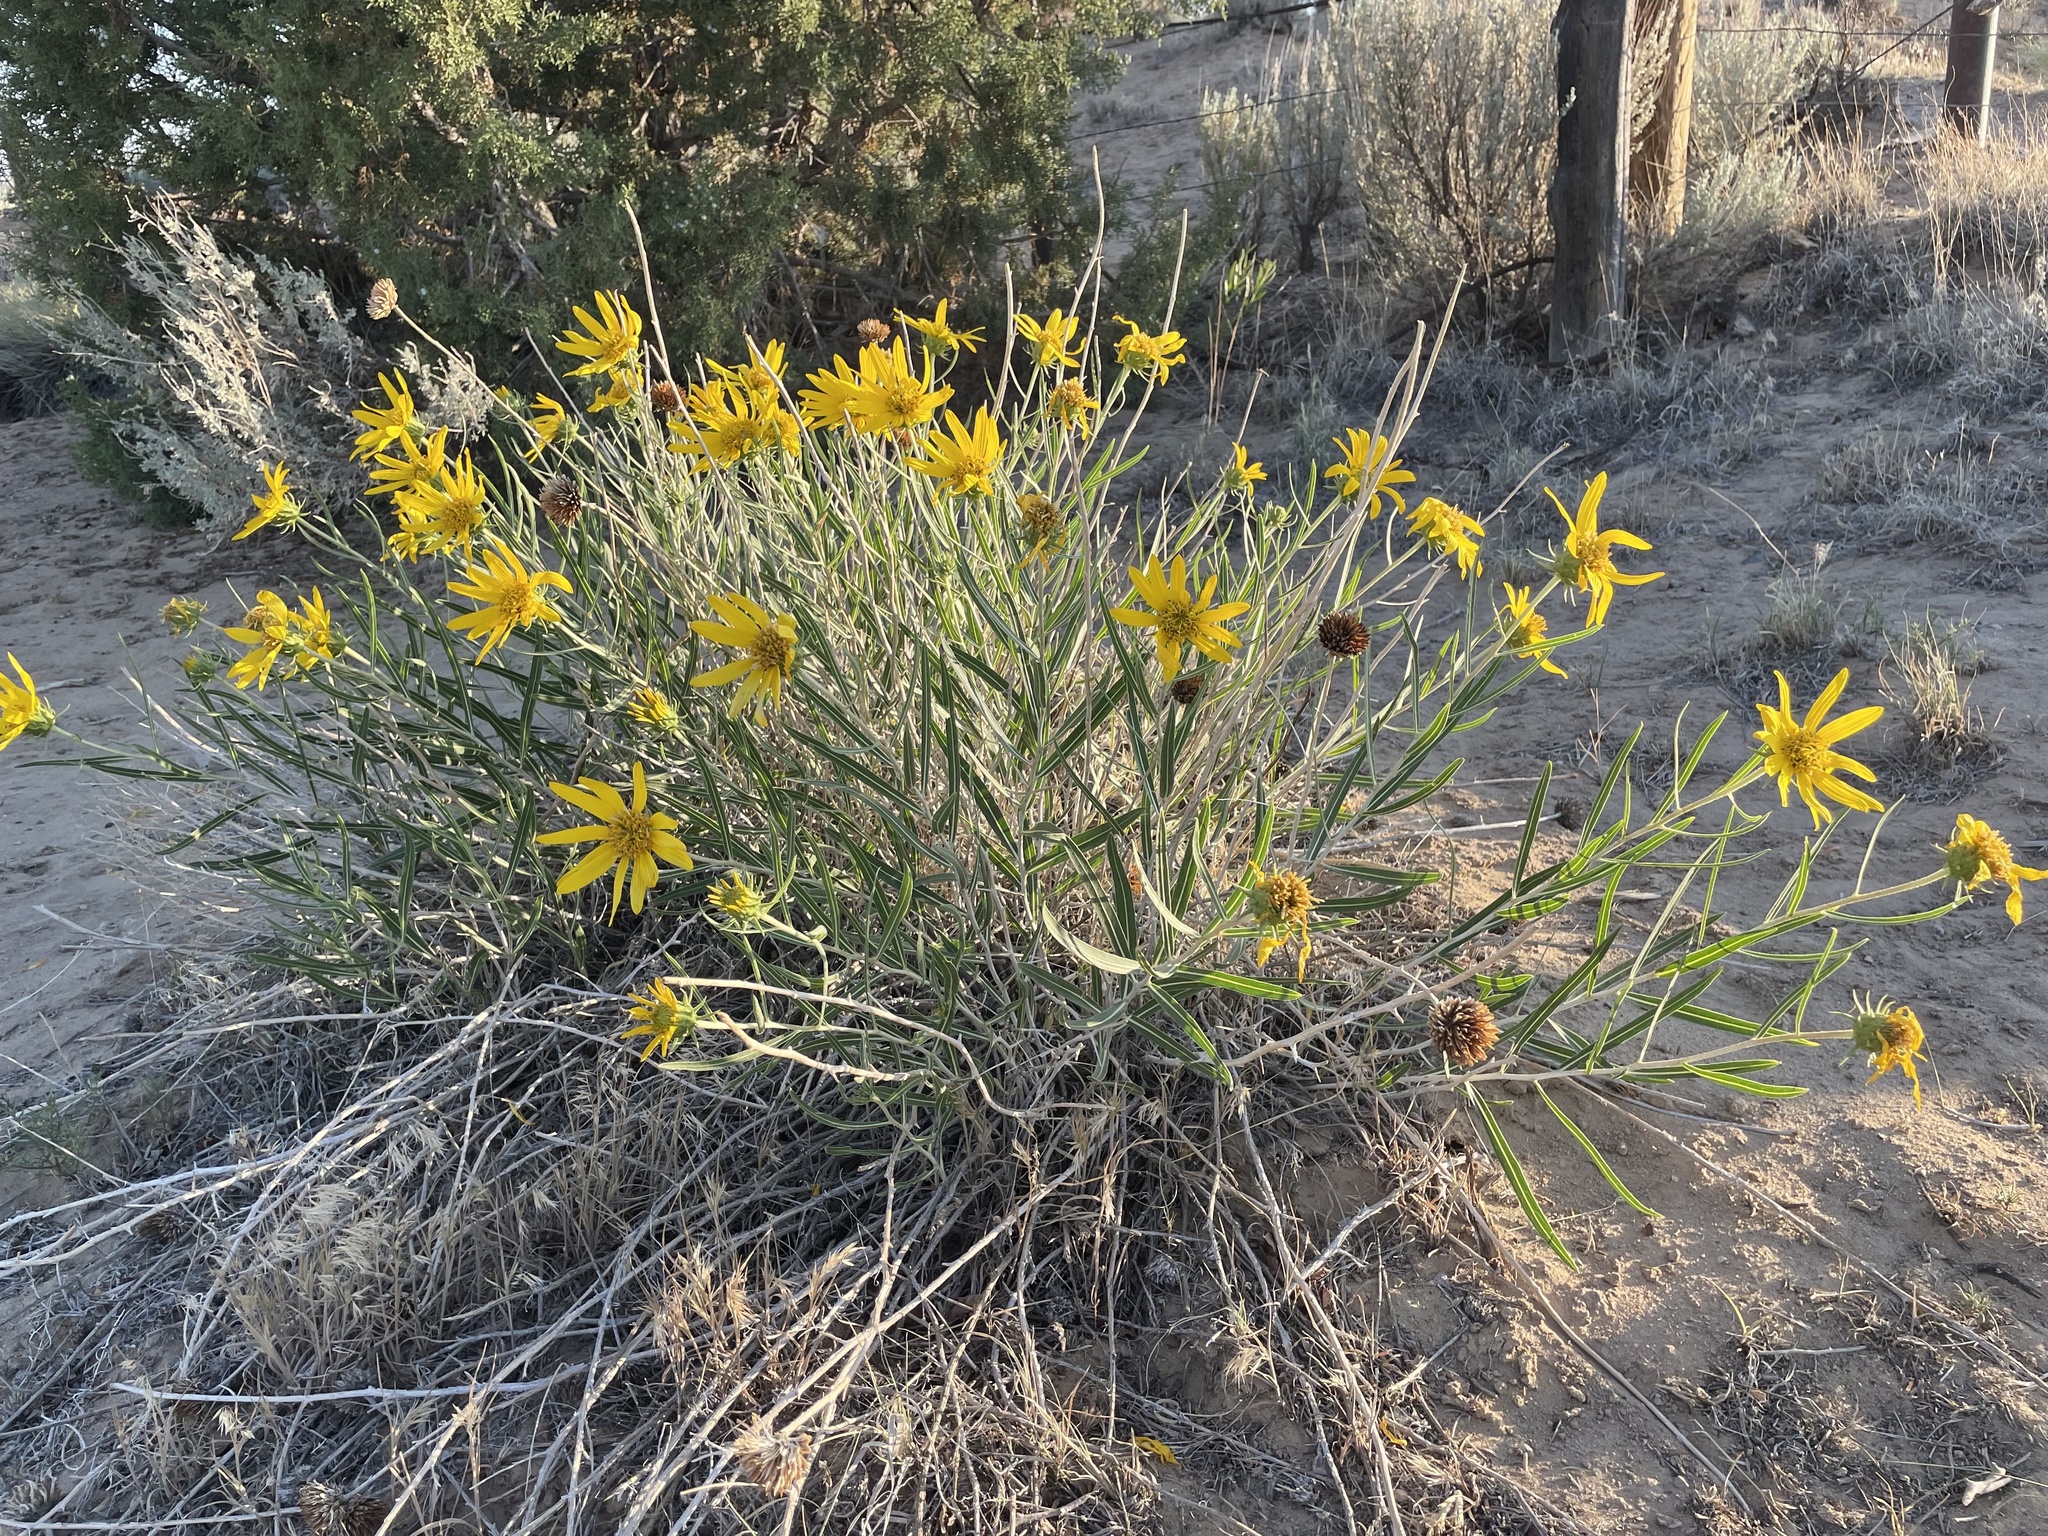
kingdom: Plantae
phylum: Tracheophyta
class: Magnoliopsida
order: Asterales
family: Asteraceae
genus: Scabrethia
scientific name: Scabrethia scabra
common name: Rough mules's-ears
